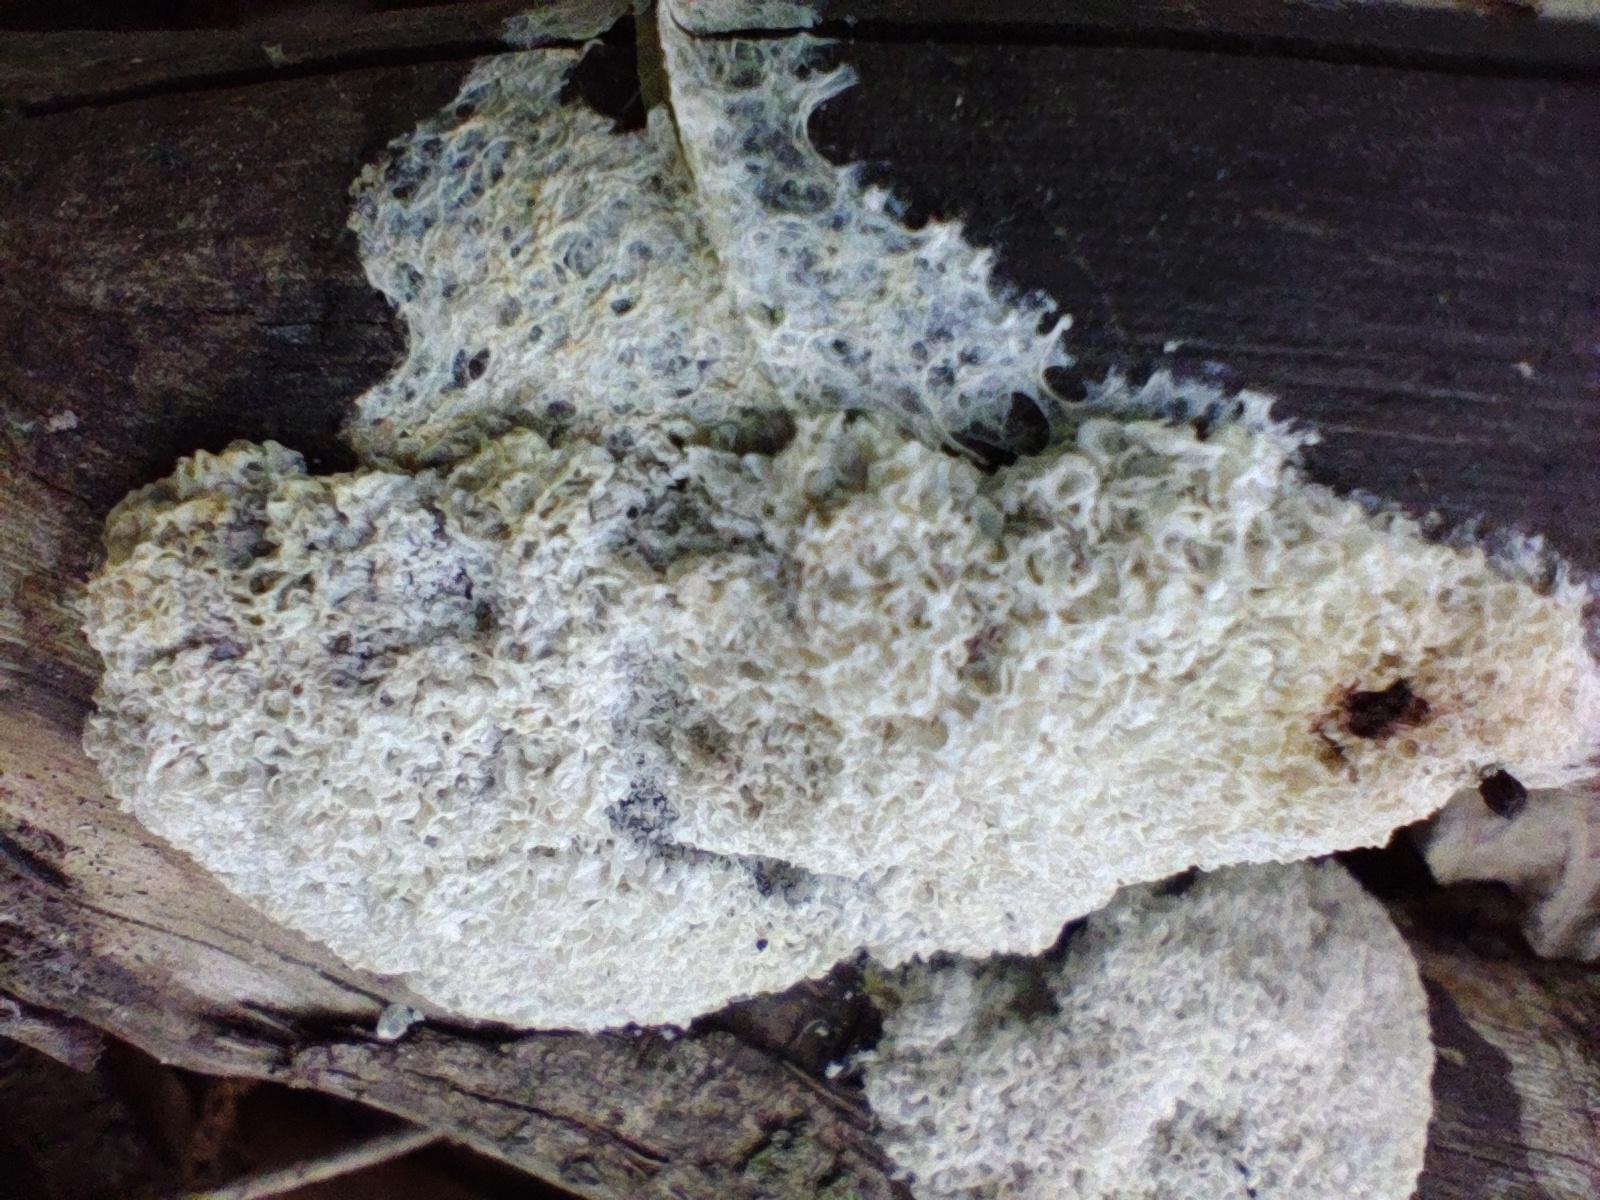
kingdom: Protozoa
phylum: Mycetozoa
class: Myxomycetes
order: Physarales
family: Physaraceae
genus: Didymium
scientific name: Didymium
